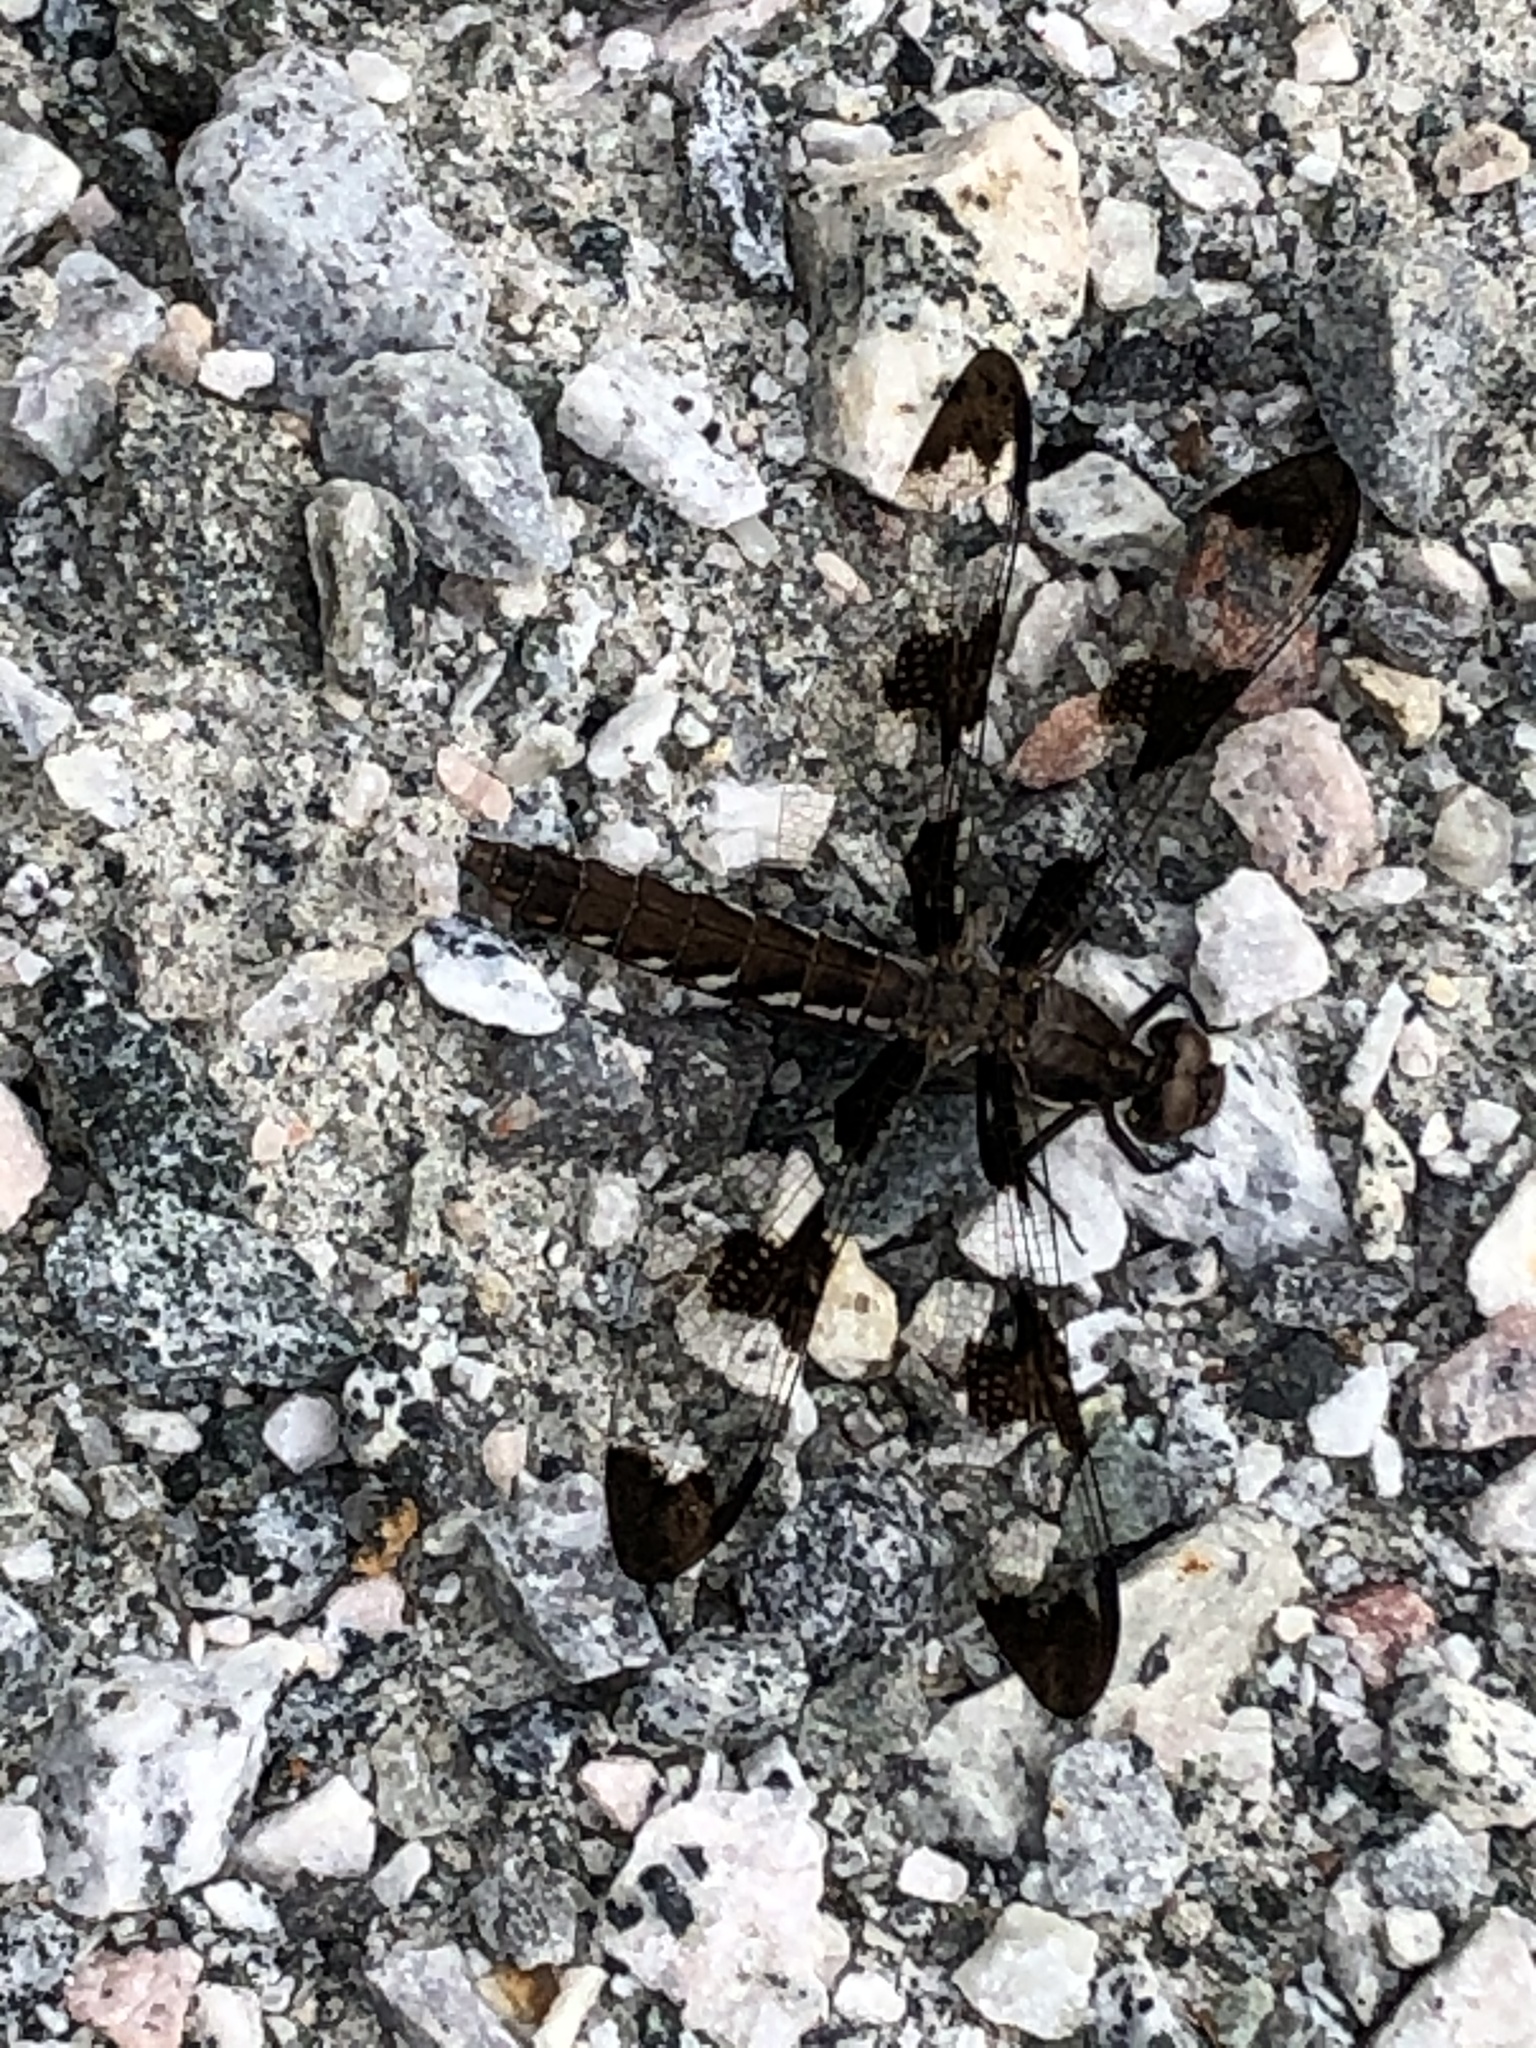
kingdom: Animalia
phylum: Arthropoda
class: Insecta
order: Odonata
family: Libellulidae
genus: Plathemis
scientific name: Plathemis lydia
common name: Common whitetail
